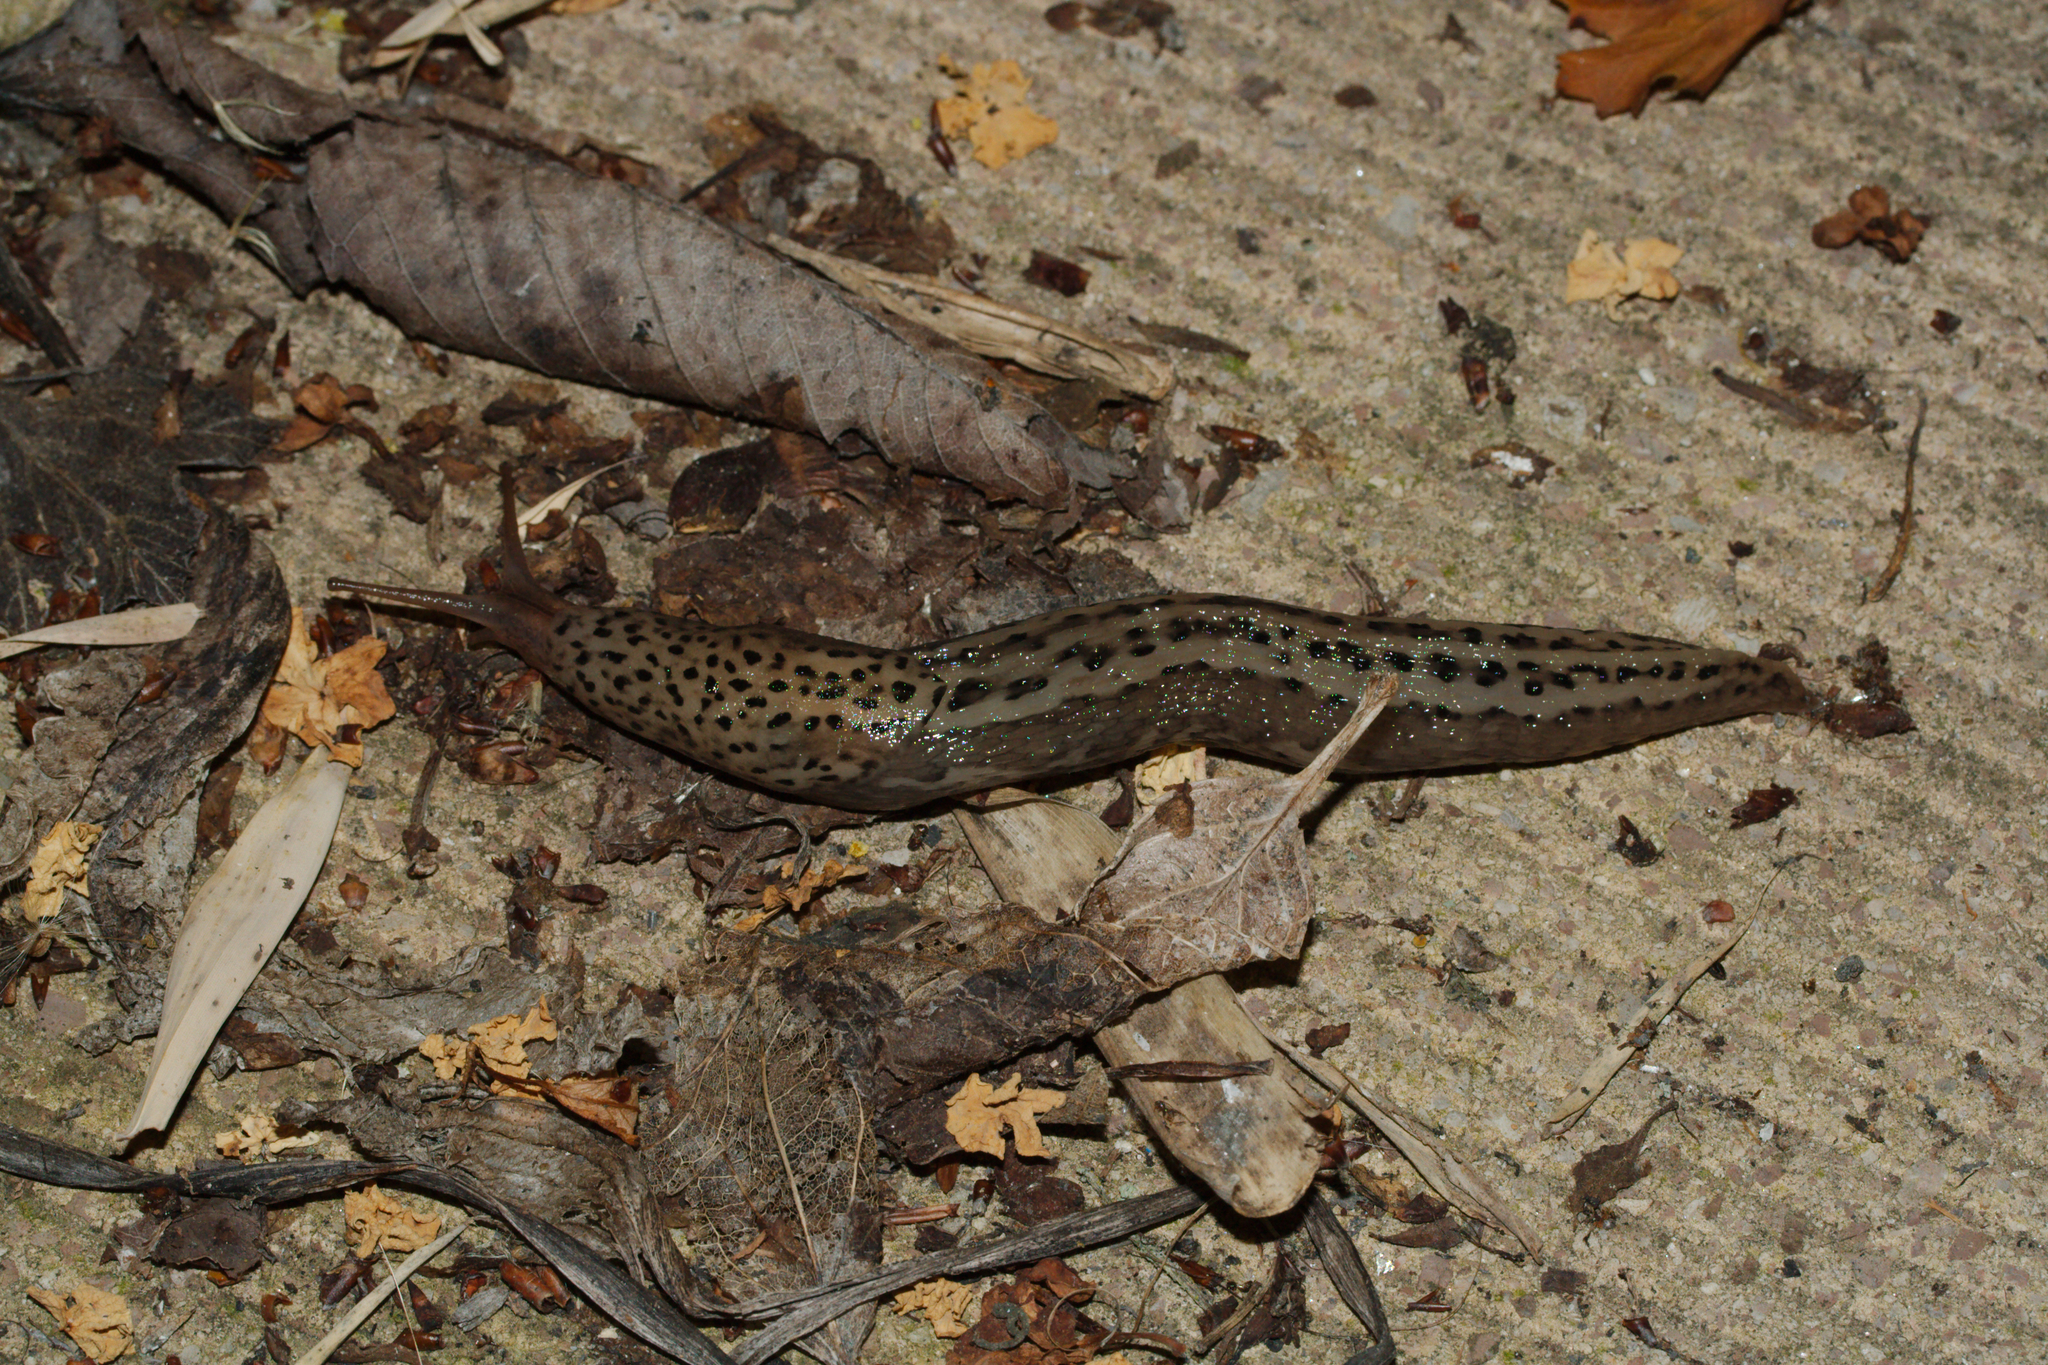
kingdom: Animalia
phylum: Mollusca
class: Gastropoda
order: Stylommatophora
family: Limacidae
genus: Limax
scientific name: Limax maximus
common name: Great grey slug
